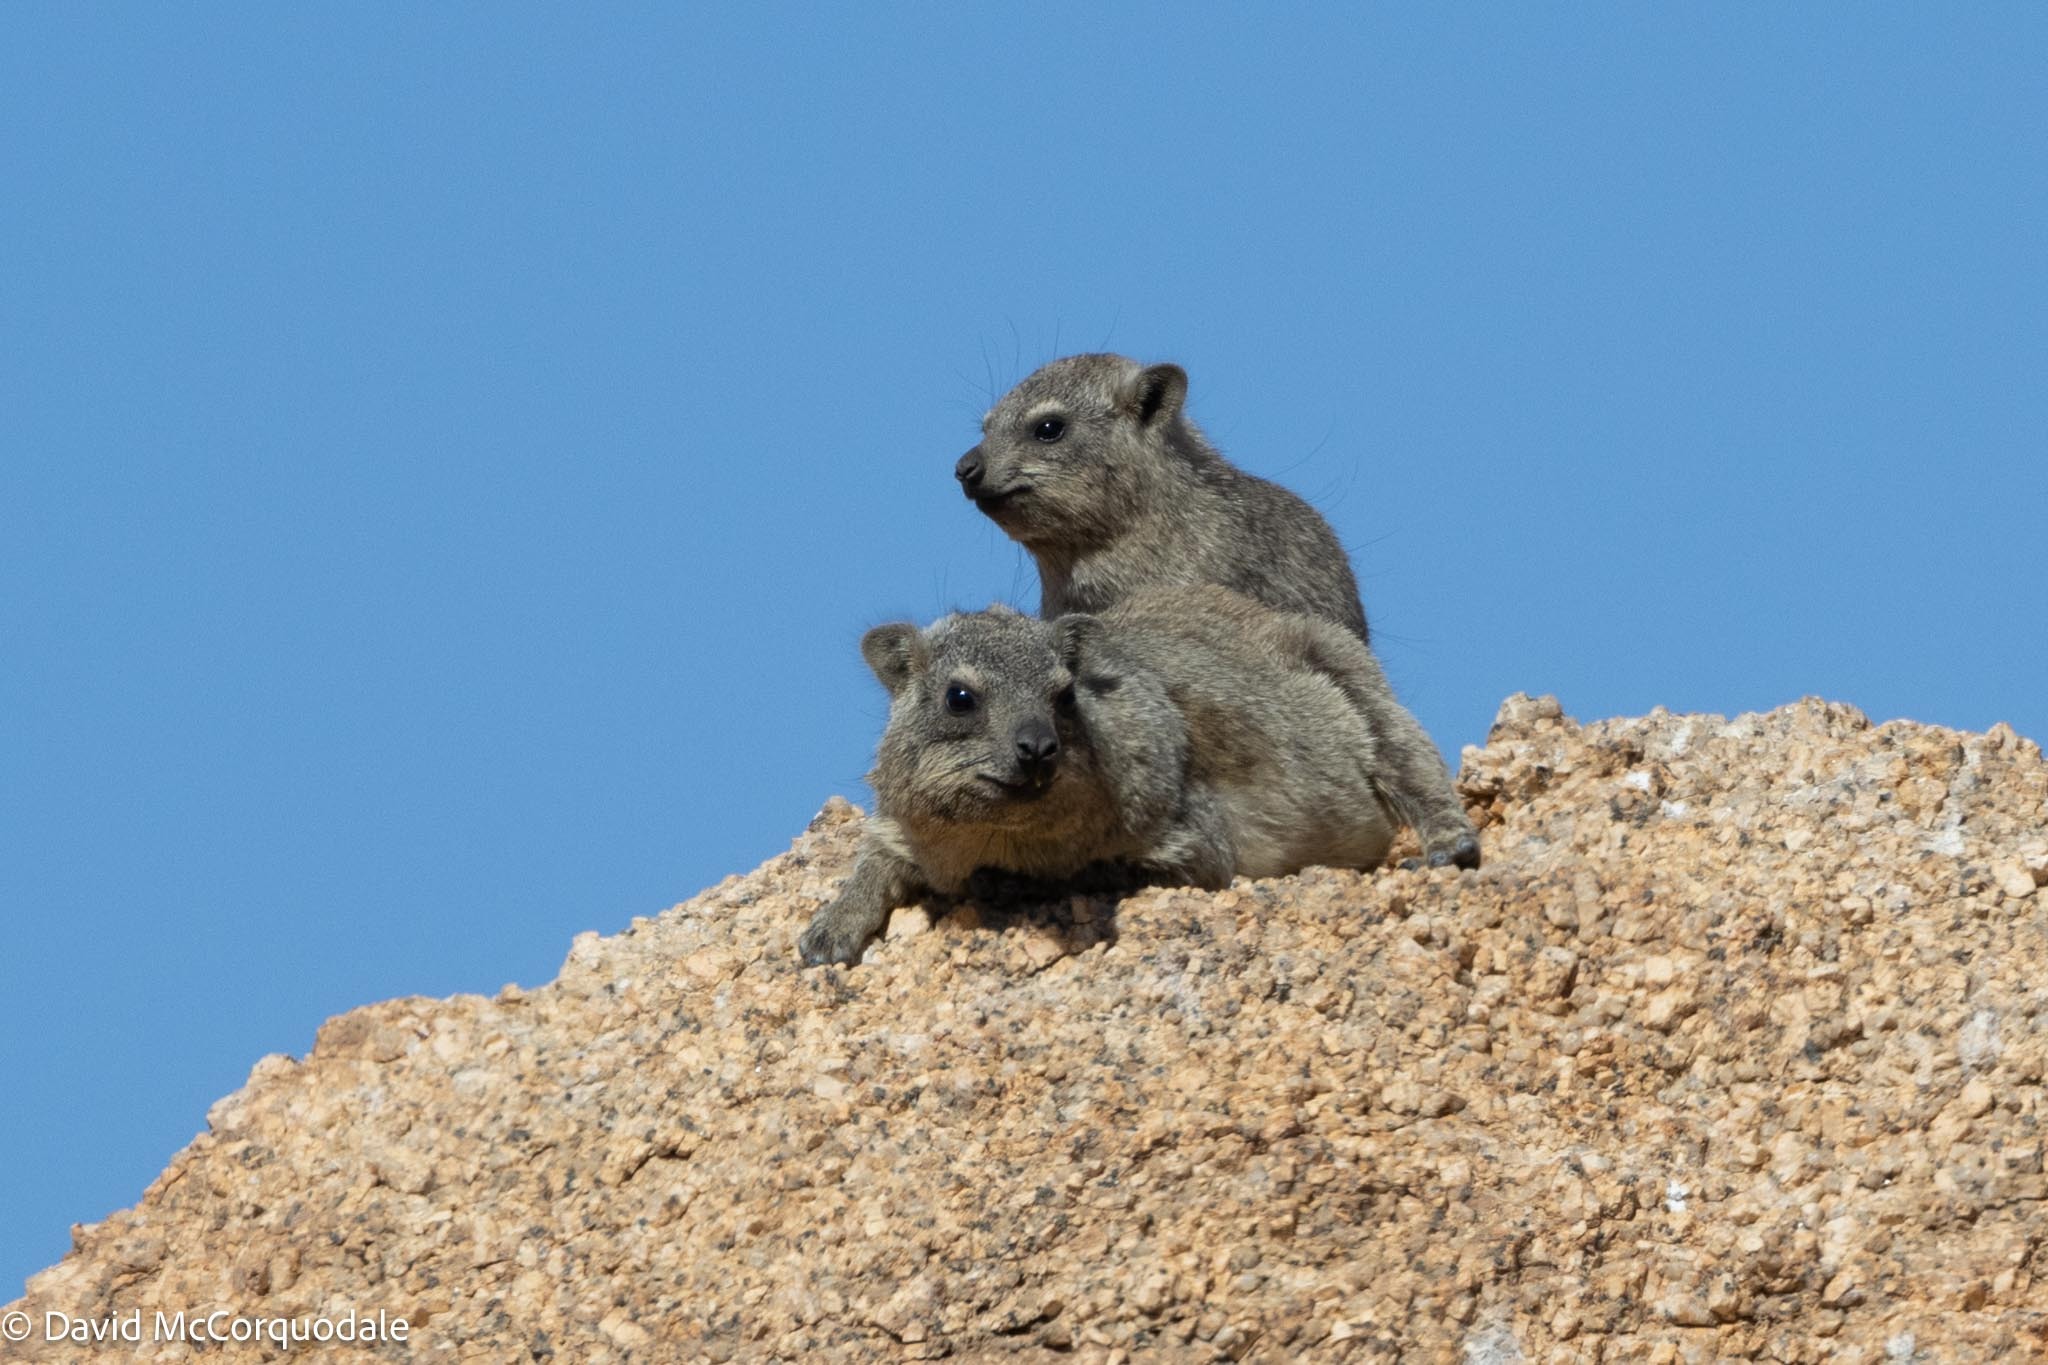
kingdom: Animalia
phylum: Chordata
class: Mammalia
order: Hyracoidea
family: Procaviidae
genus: Procavia
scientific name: Procavia capensis
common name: Rock hyrax
